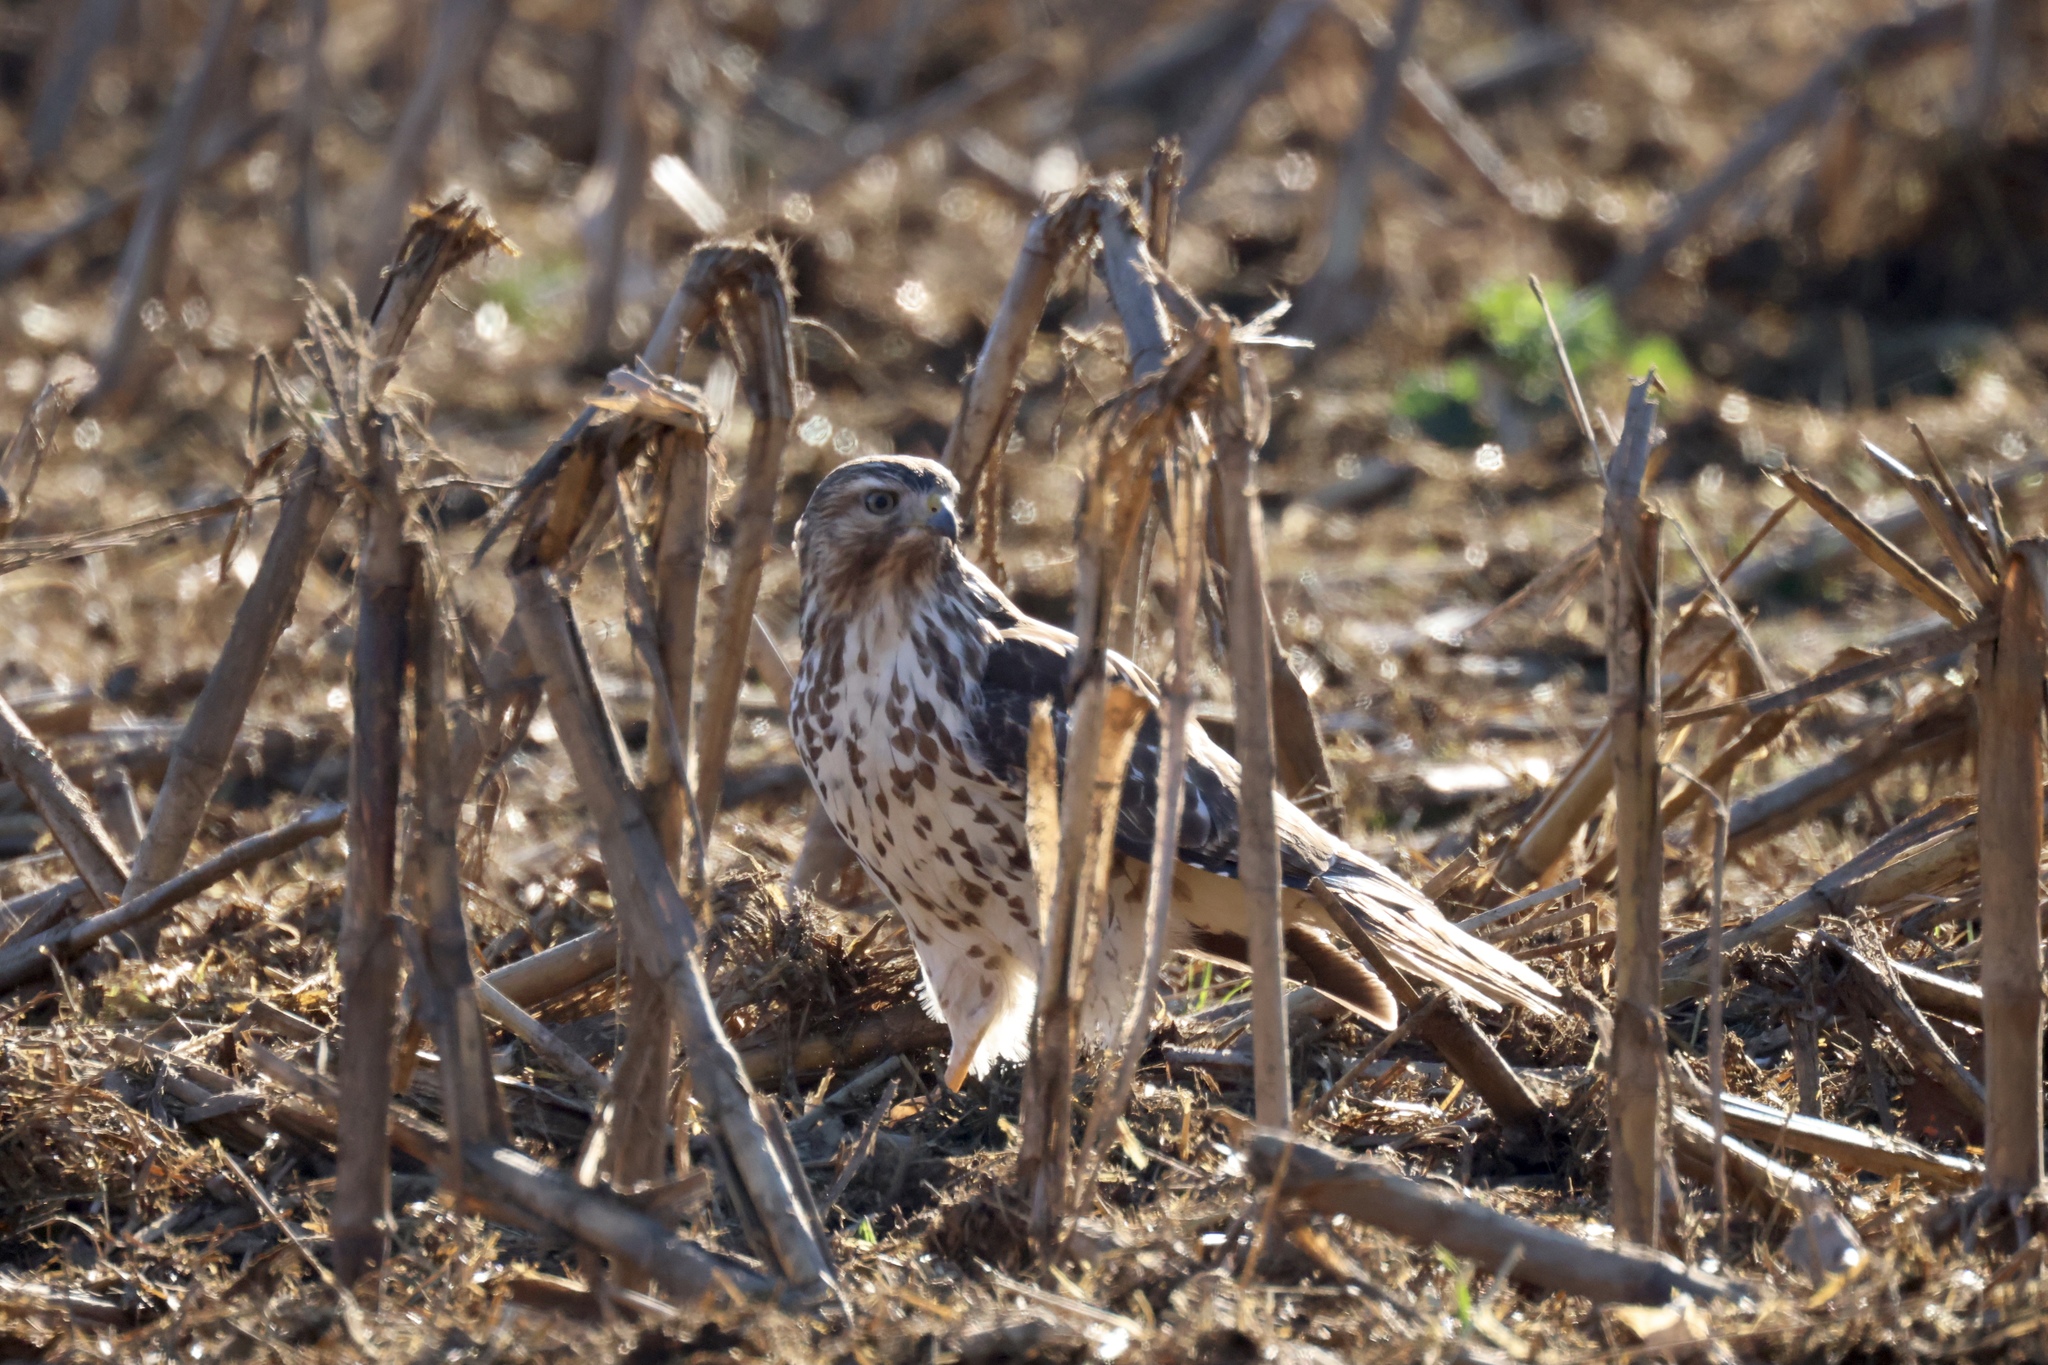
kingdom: Animalia
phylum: Chordata
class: Aves
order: Accipitriformes
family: Accipitridae
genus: Buteo
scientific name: Buteo lineatus
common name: Red-shouldered hawk
